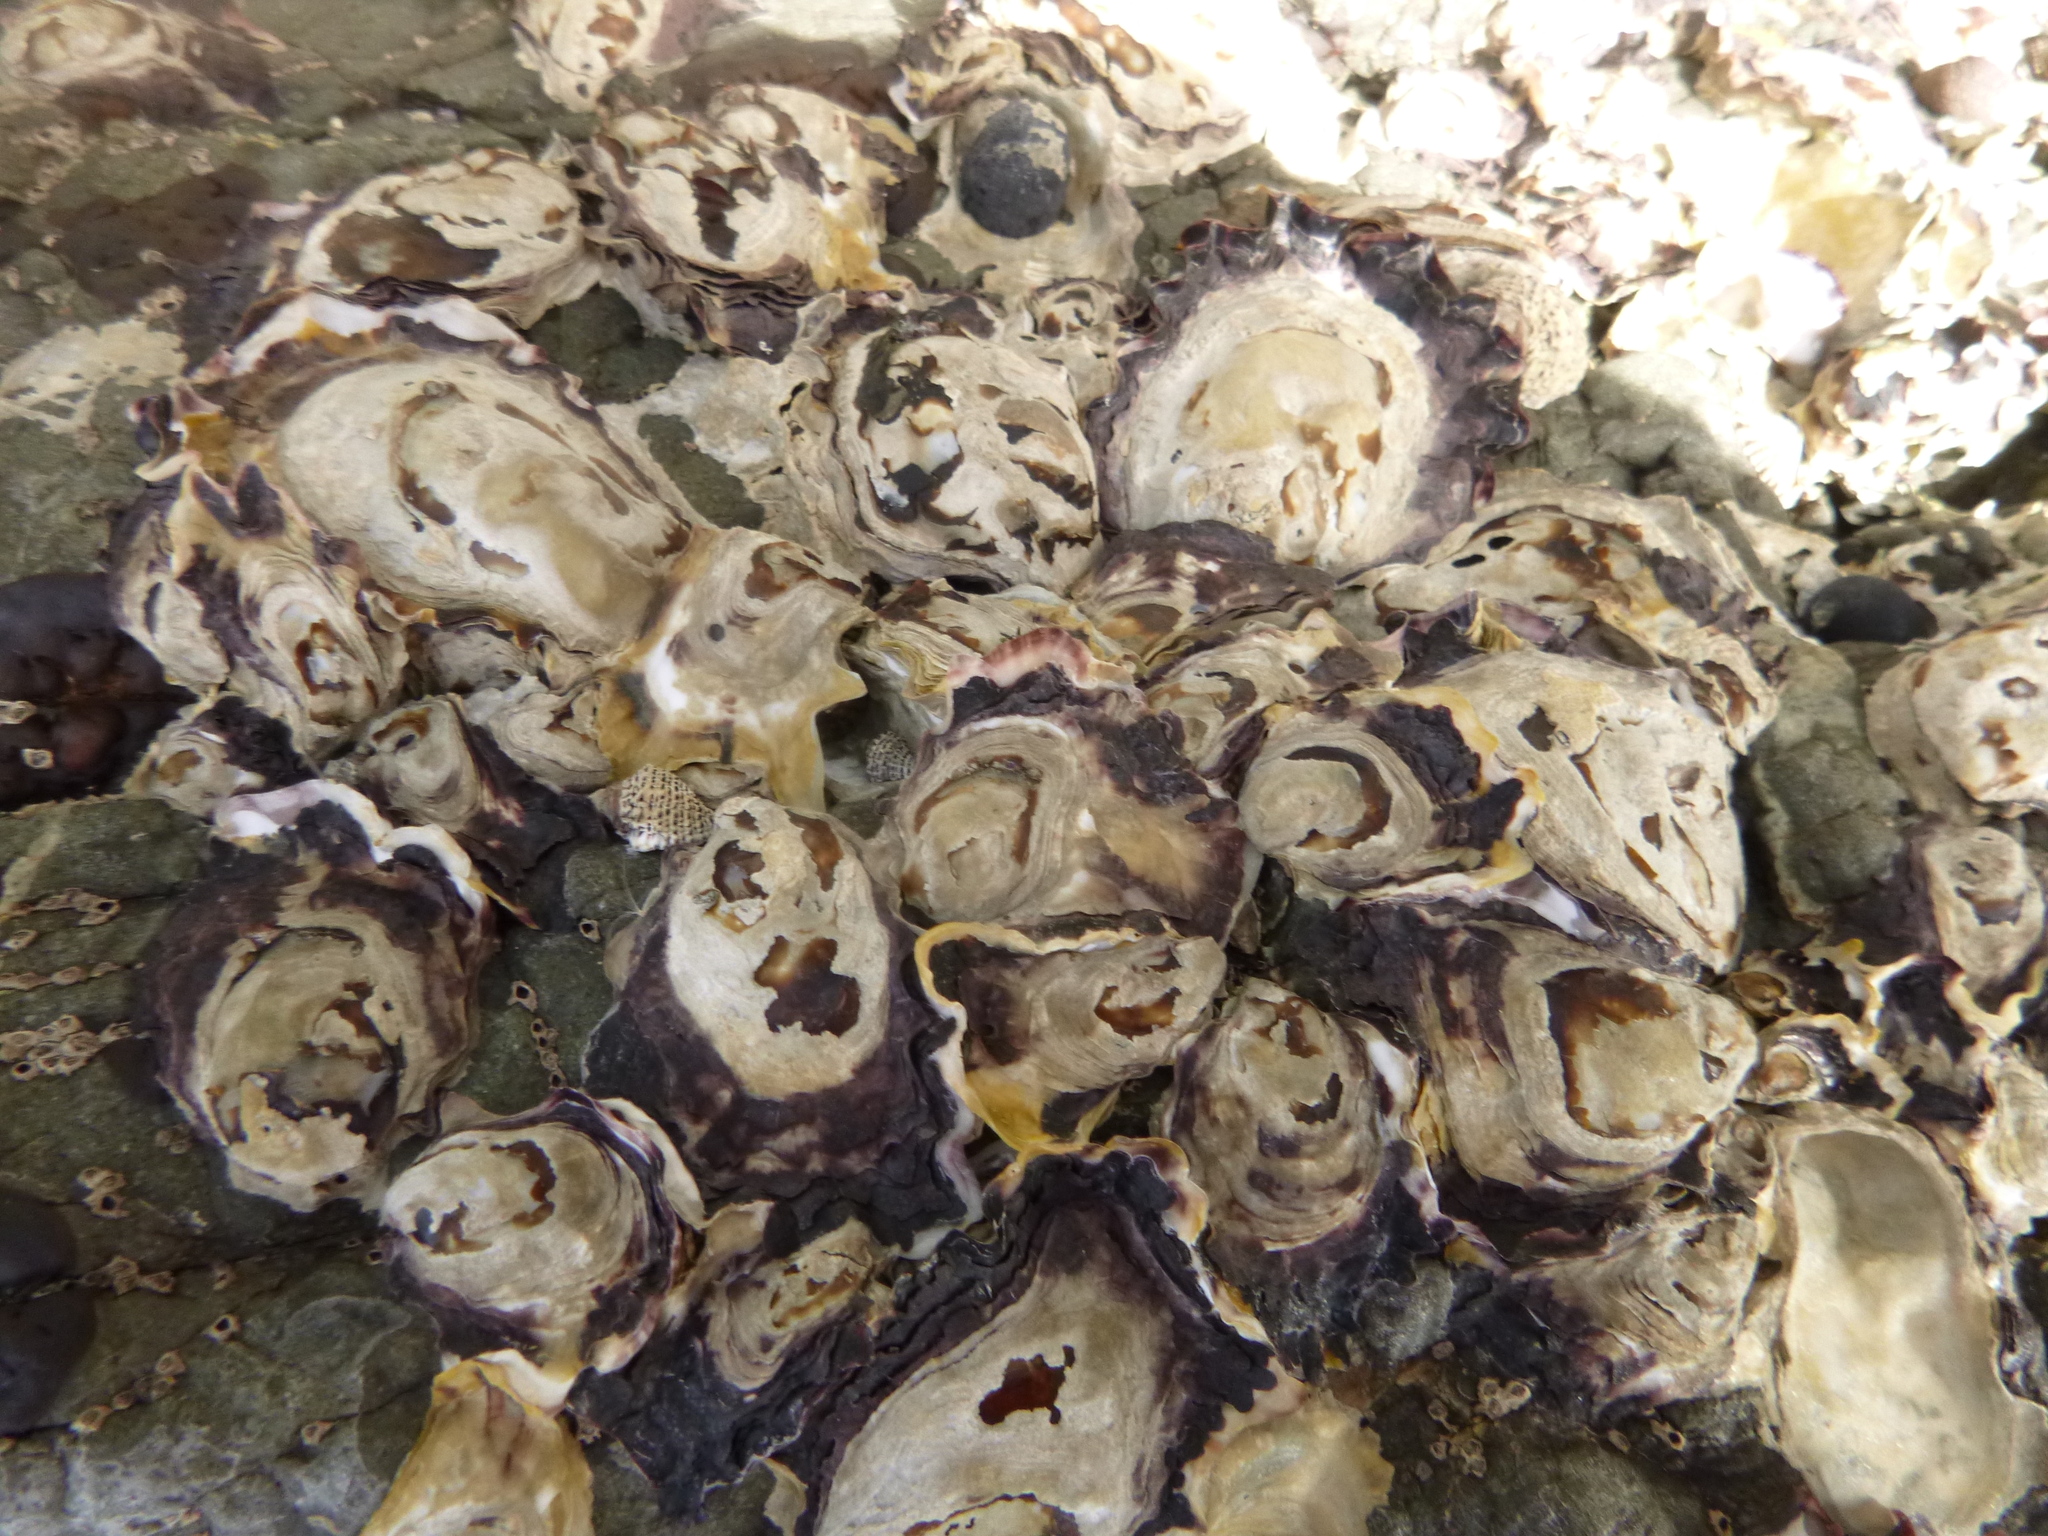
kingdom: Animalia
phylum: Mollusca
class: Bivalvia
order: Ostreida
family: Ostreidae
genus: Saccostrea
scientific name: Saccostrea glomerata
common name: Sydney cupped oyster
